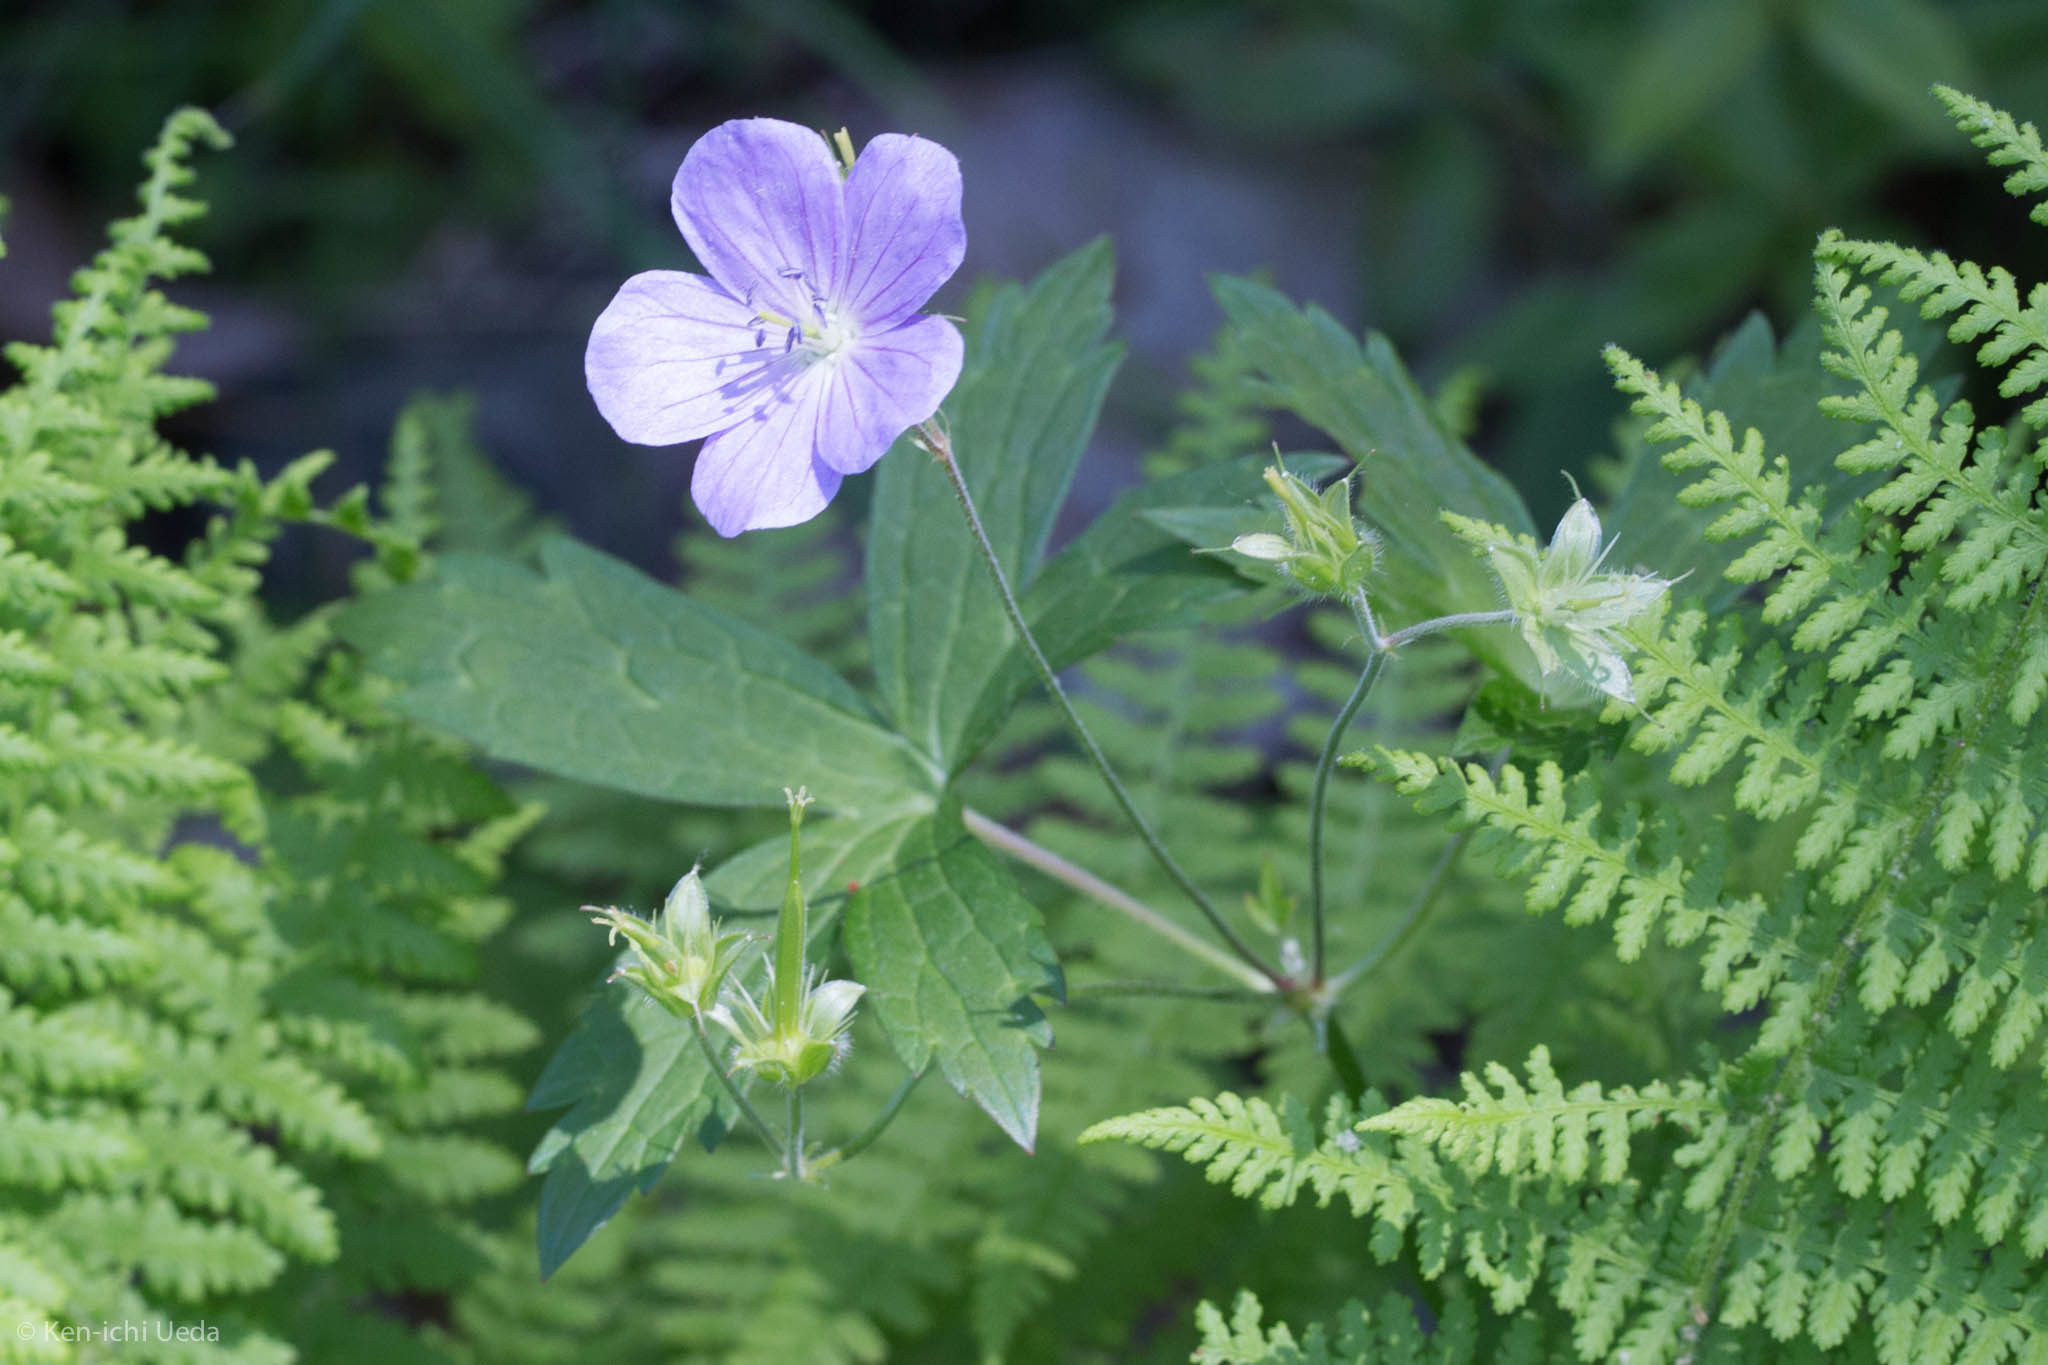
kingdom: Plantae
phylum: Tracheophyta
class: Magnoliopsida
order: Geraniales
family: Geraniaceae
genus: Geranium
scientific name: Geranium maculatum
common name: Spotted geranium
